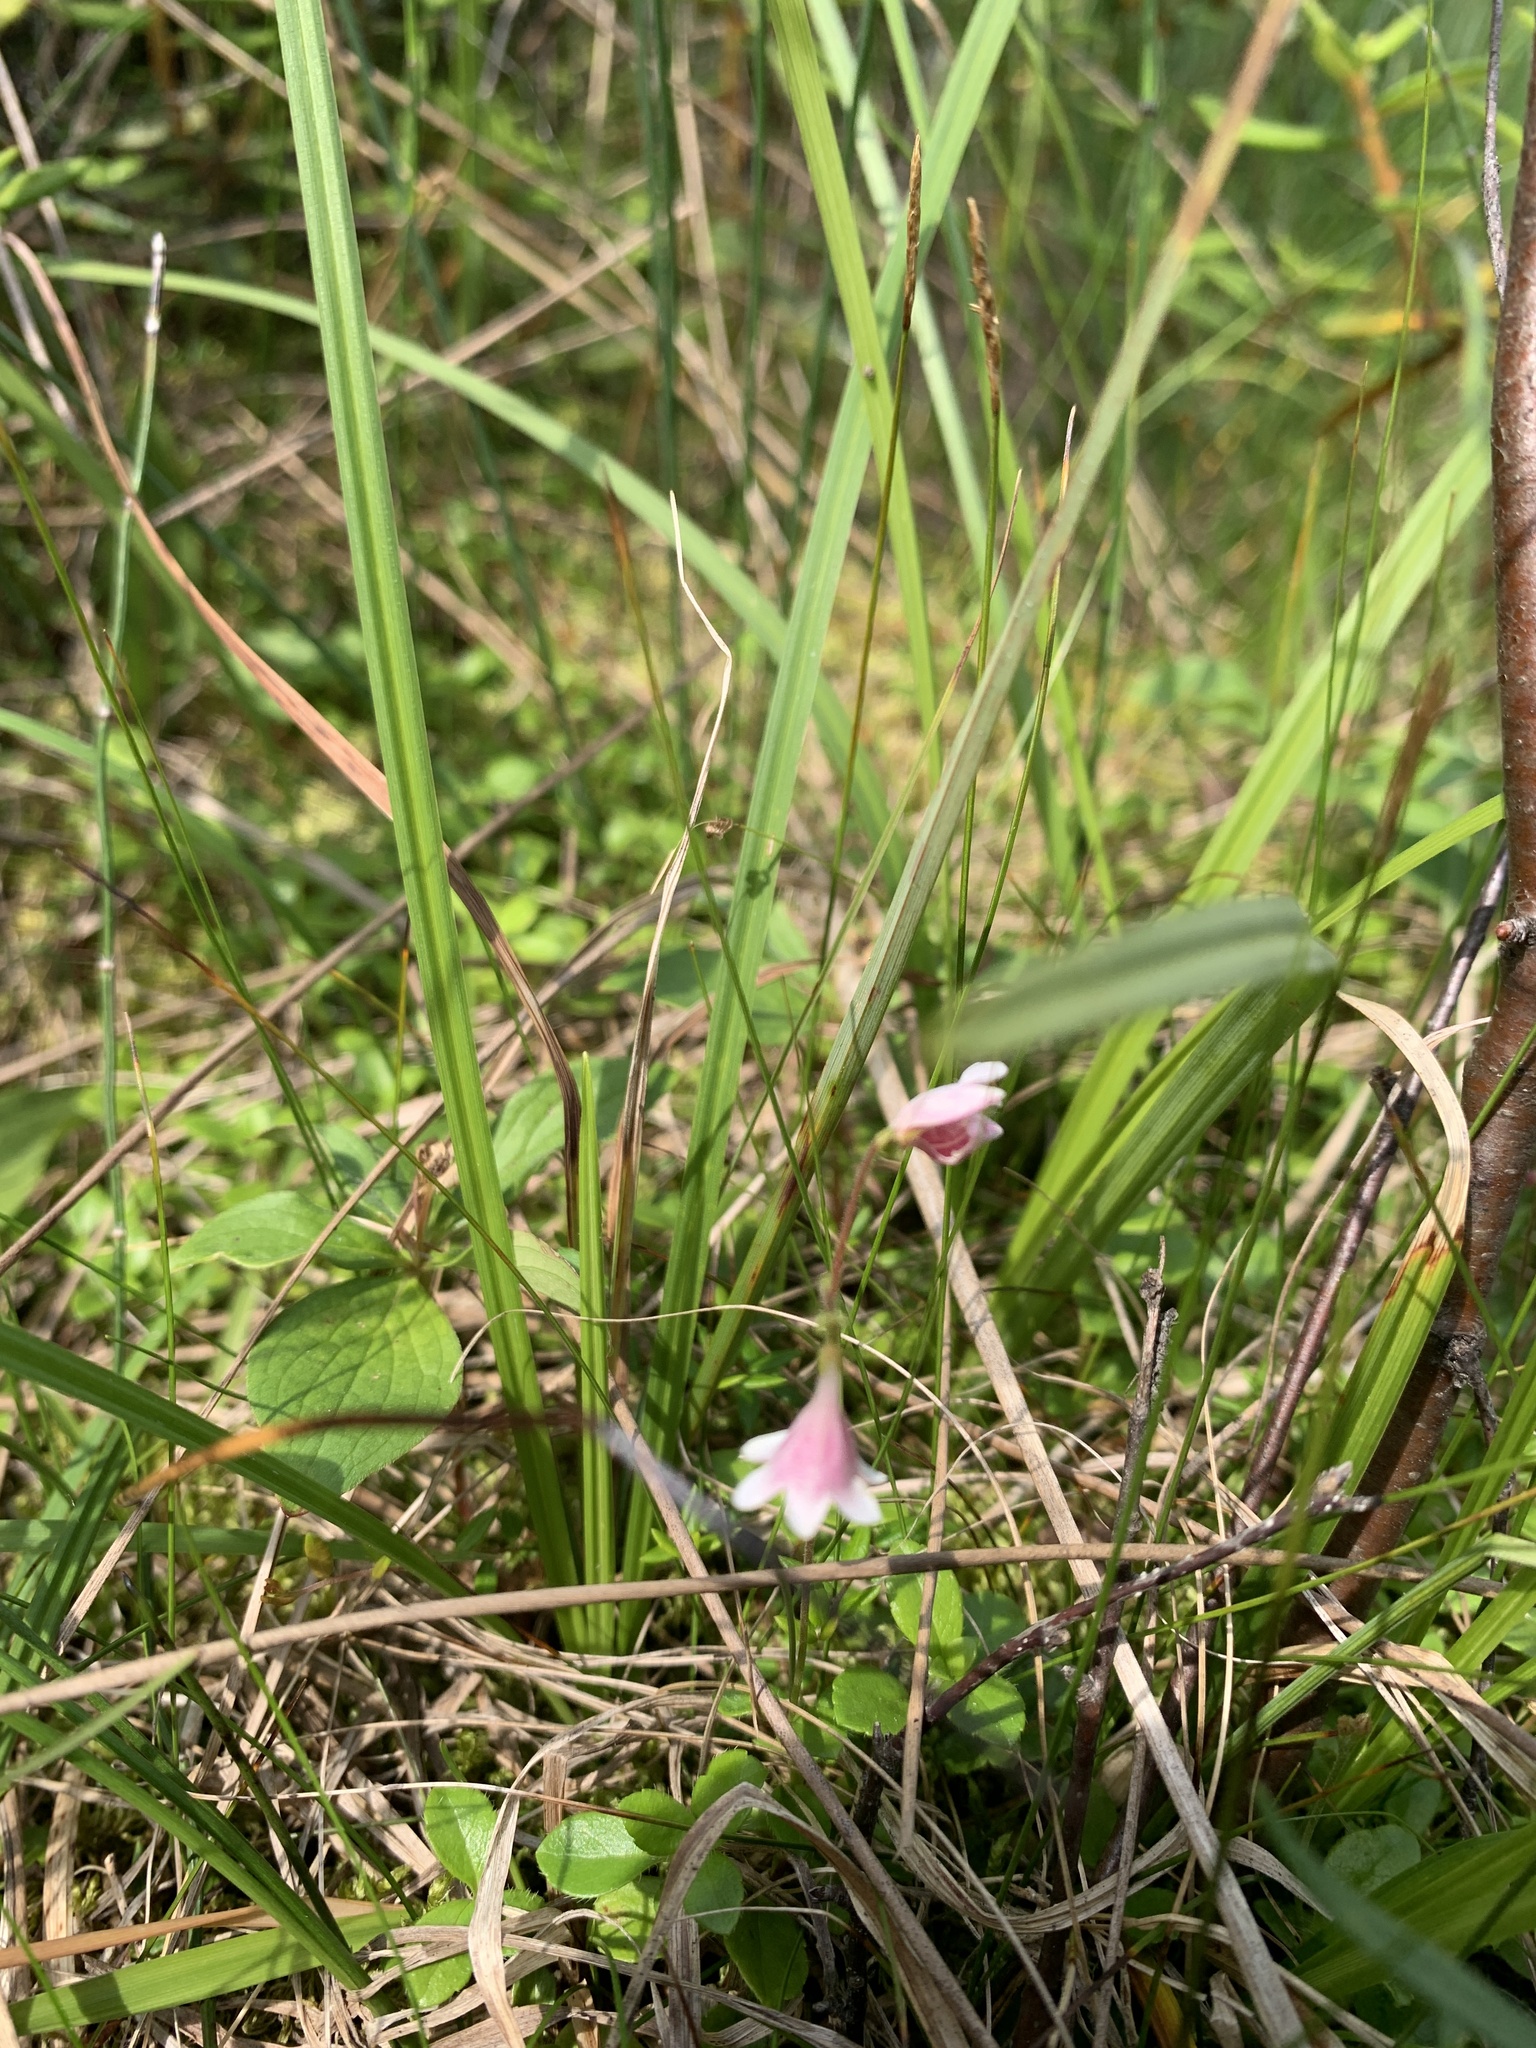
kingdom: Plantae
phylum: Tracheophyta
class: Magnoliopsida
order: Dipsacales
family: Caprifoliaceae
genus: Linnaea
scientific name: Linnaea borealis
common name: Twinflower
